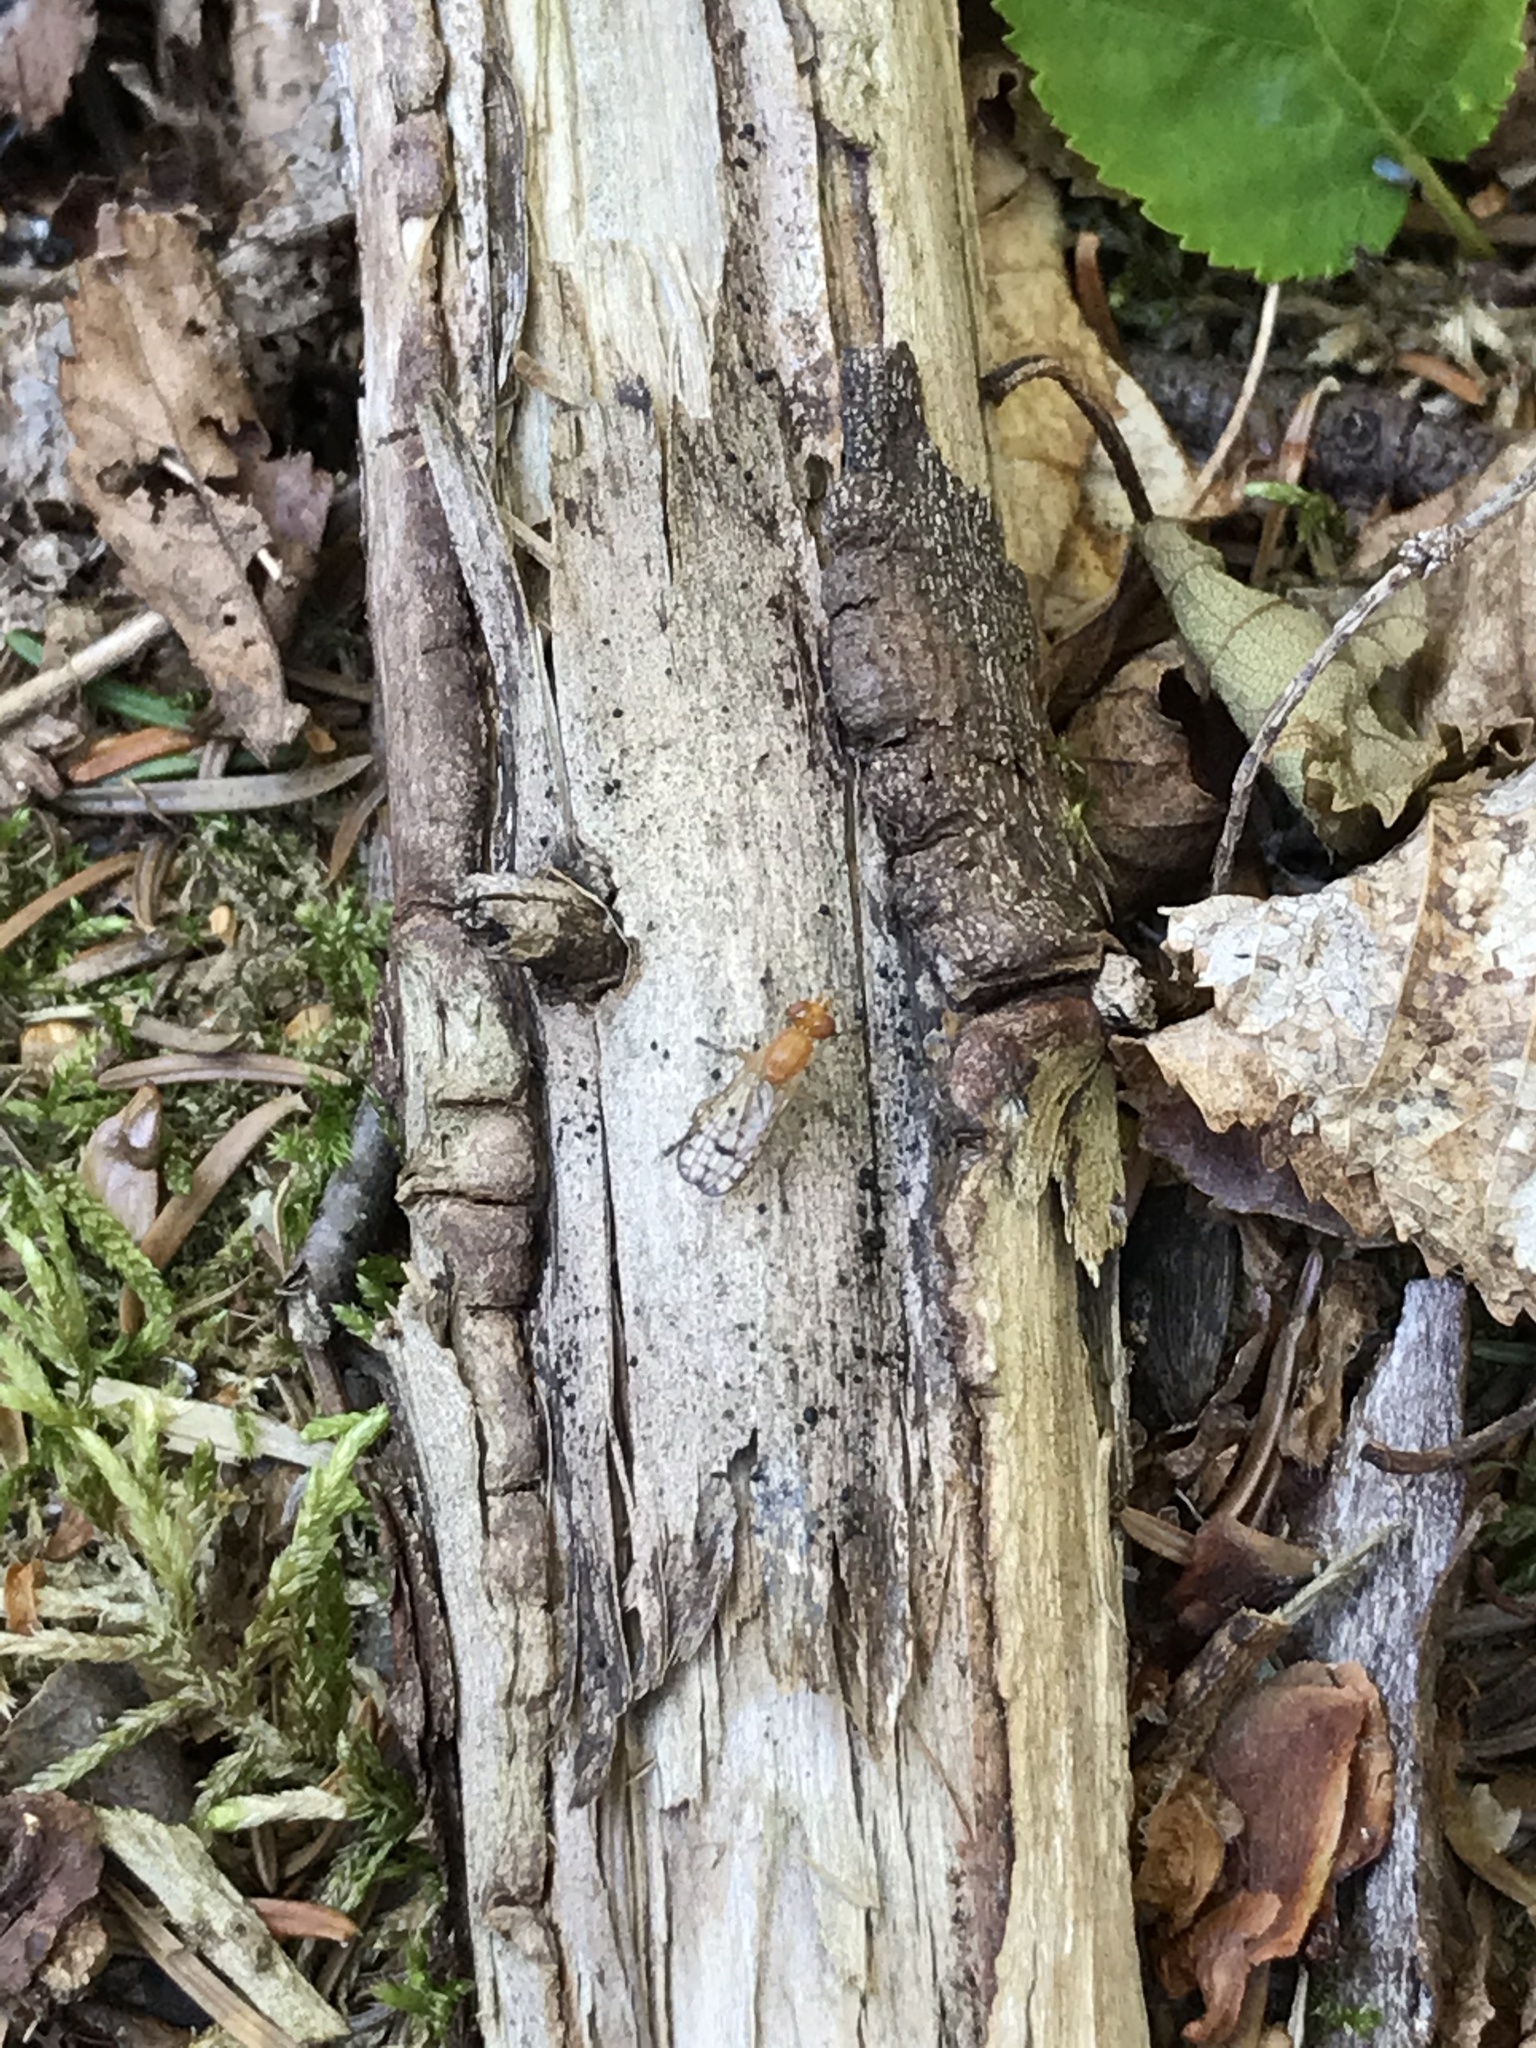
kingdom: Animalia
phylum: Arthropoda
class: Insecta
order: Diptera
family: Sciomyzidae
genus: Tetanocera
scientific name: Tetanocera valida
